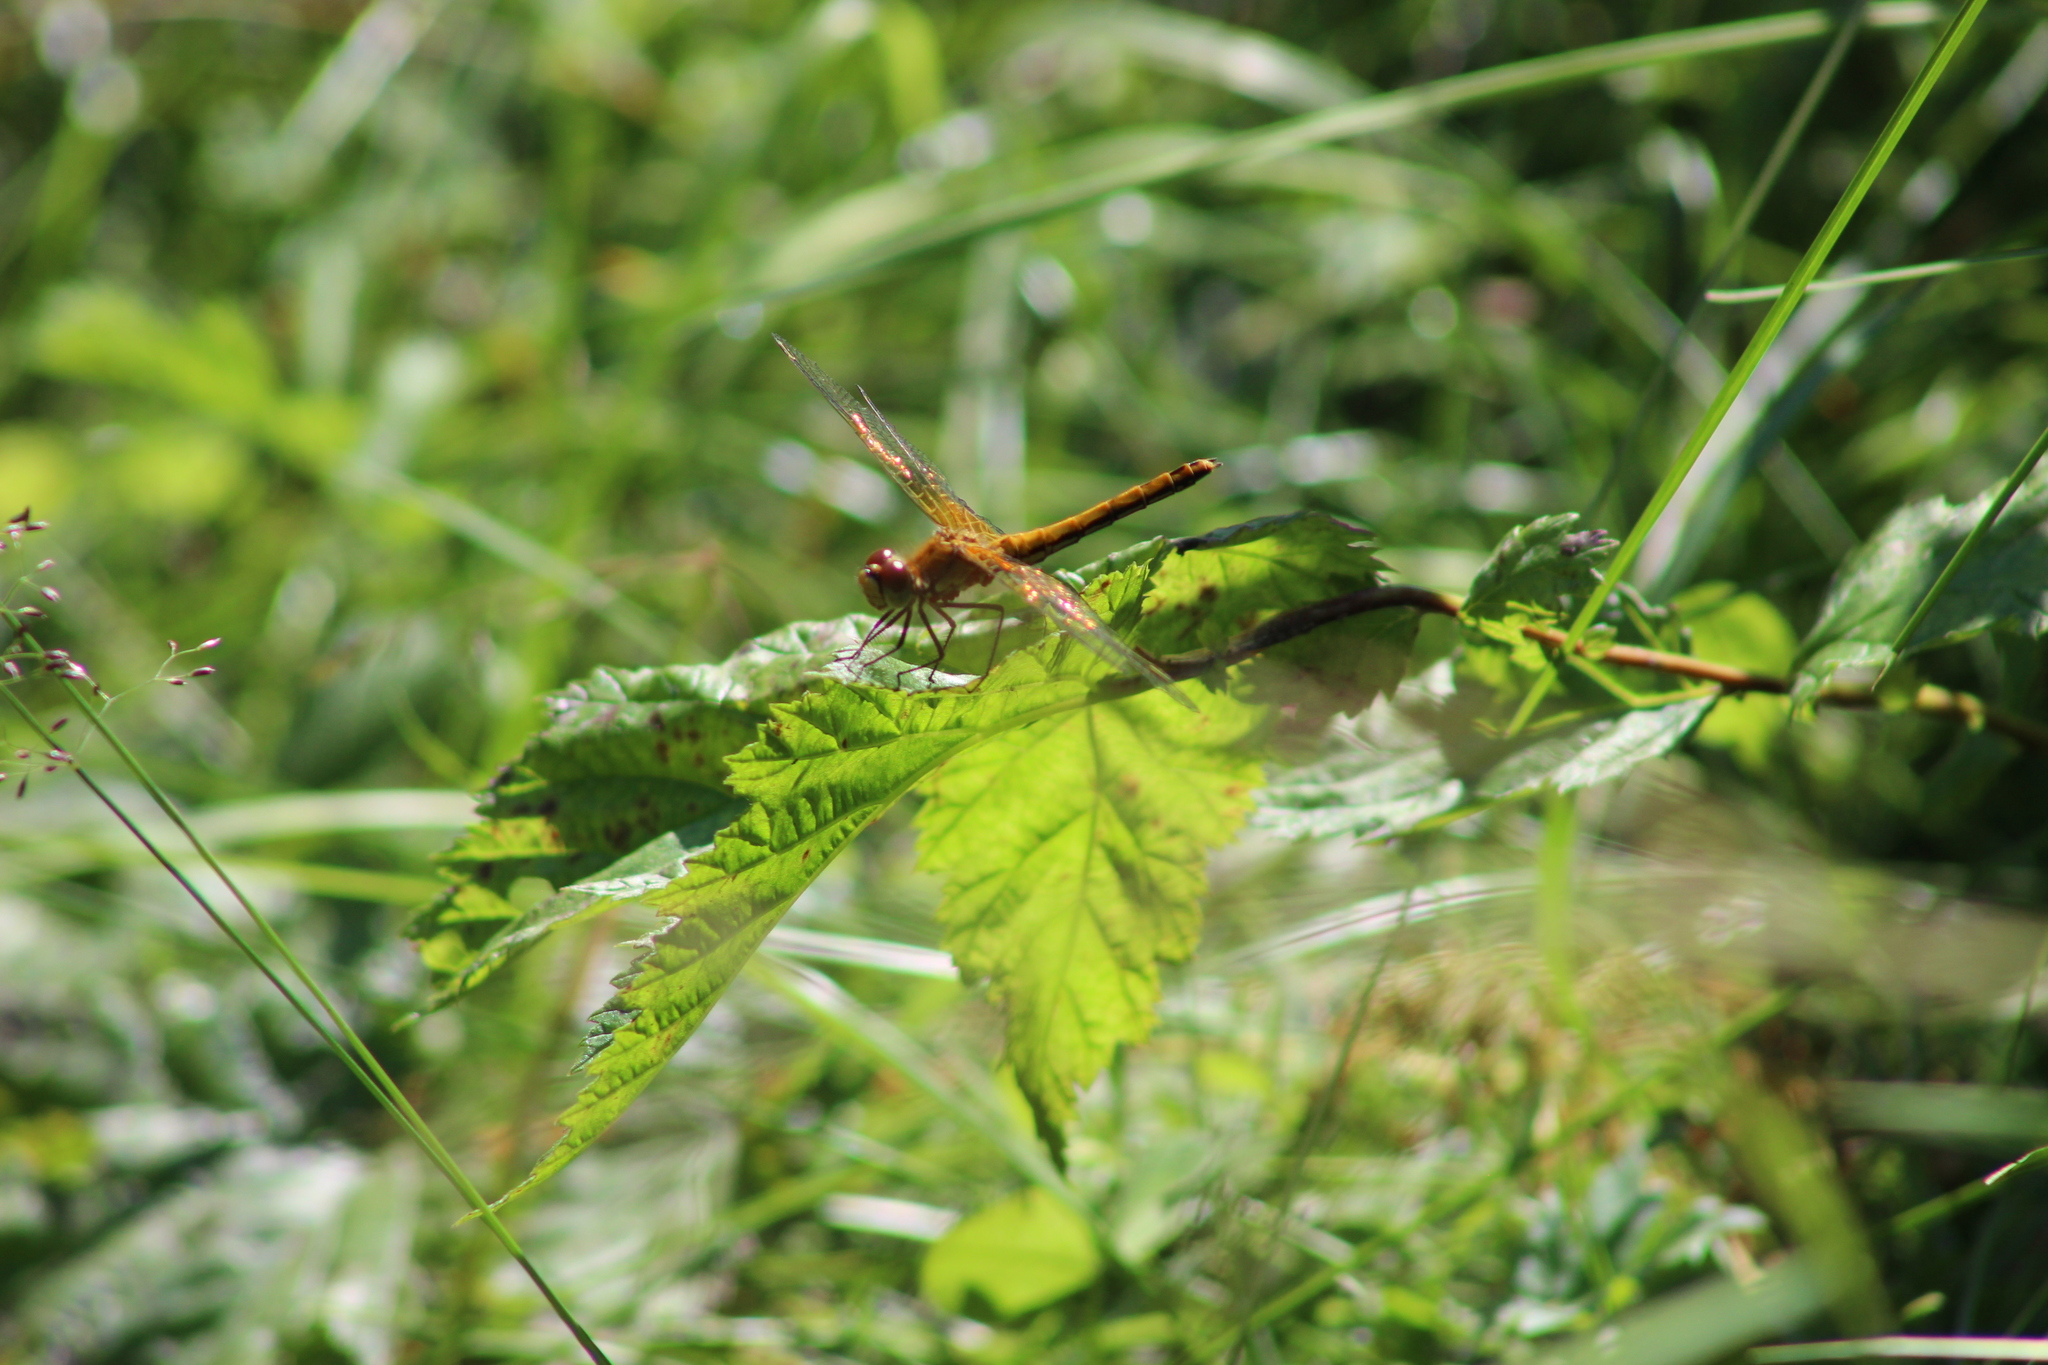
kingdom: Animalia
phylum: Arthropoda
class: Insecta
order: Odonata
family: Libellulidae
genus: Sympetrum
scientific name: Sympetrum flaveolum
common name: Yellow-winged darter
